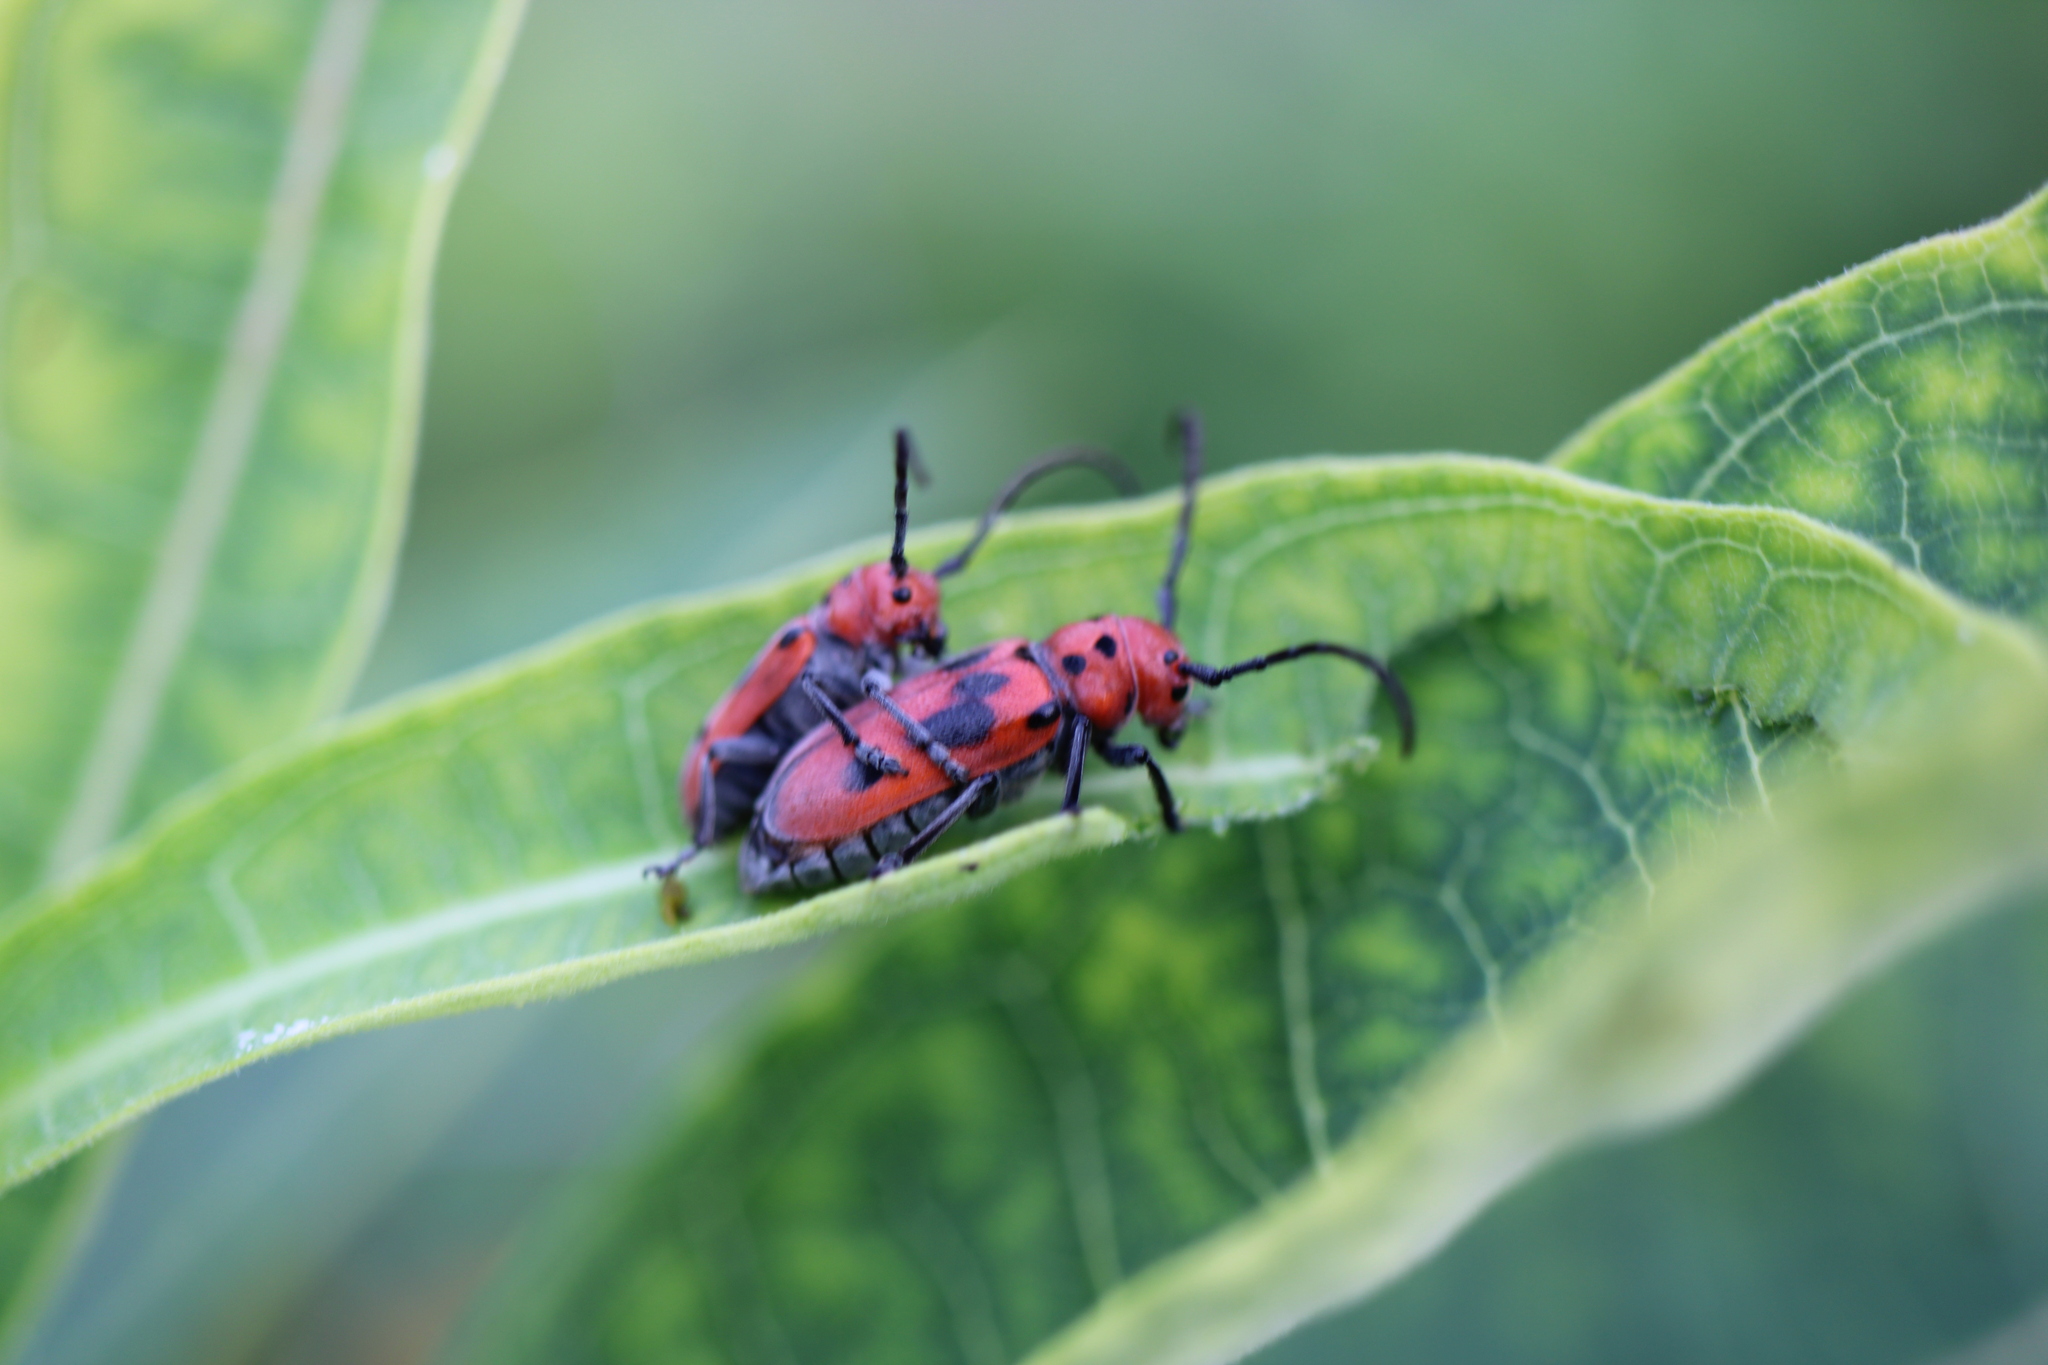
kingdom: Animalia
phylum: Arthropoda
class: Insecta
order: Coleoptera
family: Cerambycidae
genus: Tetraopes
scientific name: Tetraopes tetrophthalmus
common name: Red milkweed beetle
